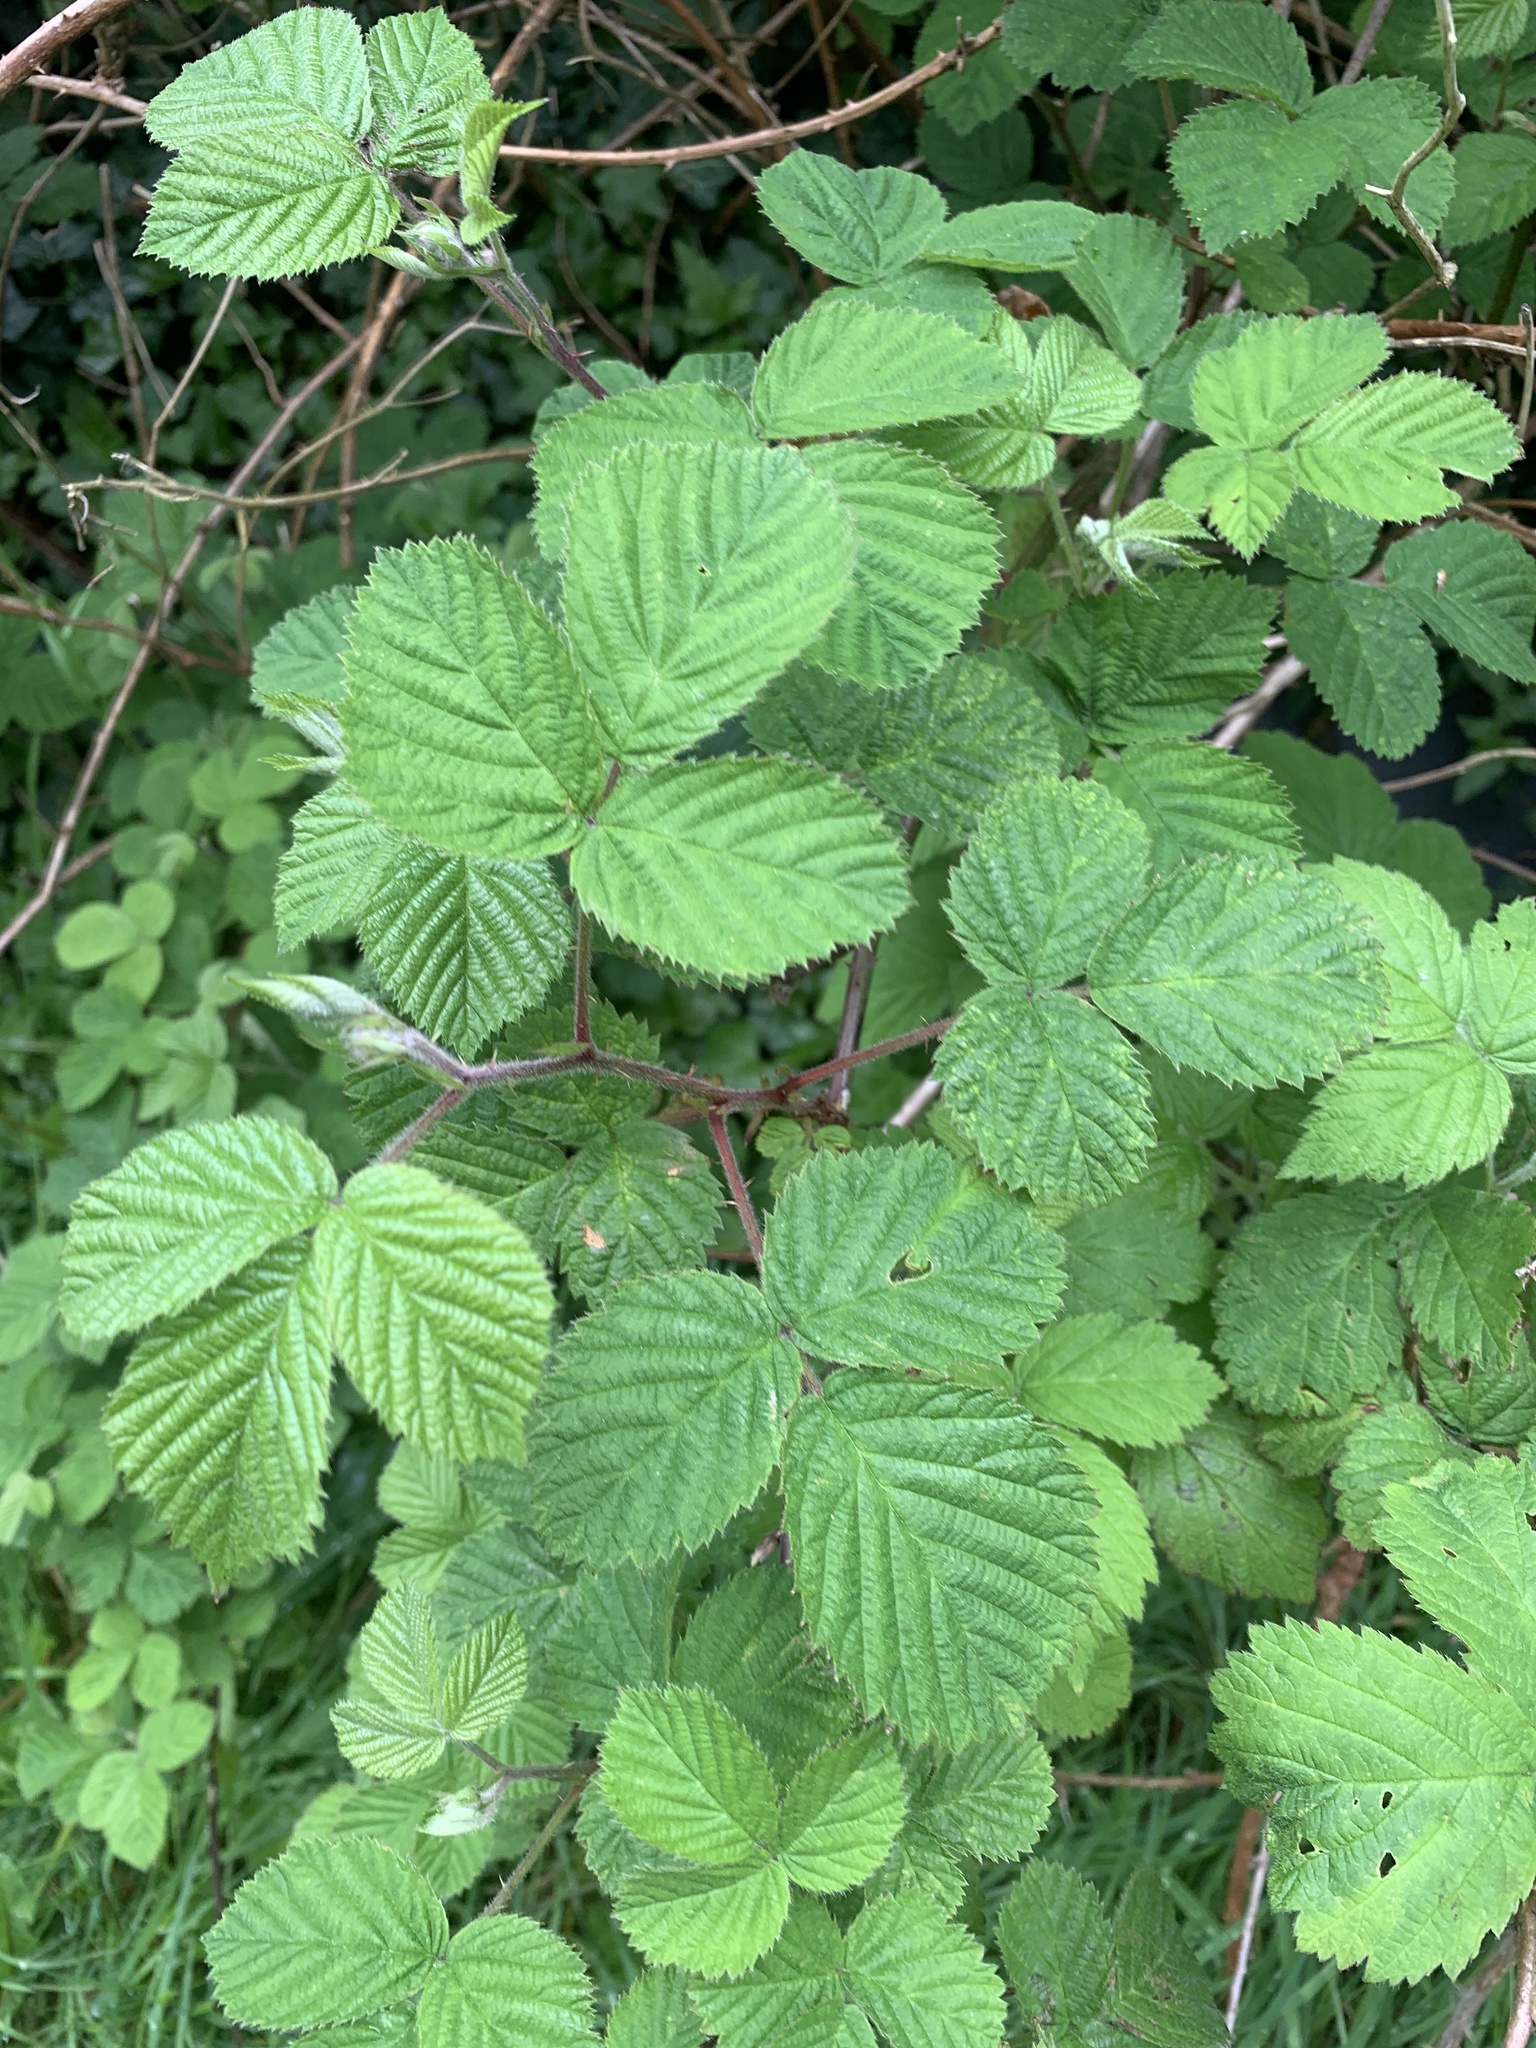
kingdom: Plantae
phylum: Tracheophyta
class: Magnoliopsida
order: Rosales
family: Rosaceae
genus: Rubus
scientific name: Rubus fruticosus
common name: Blackberry, bramble
